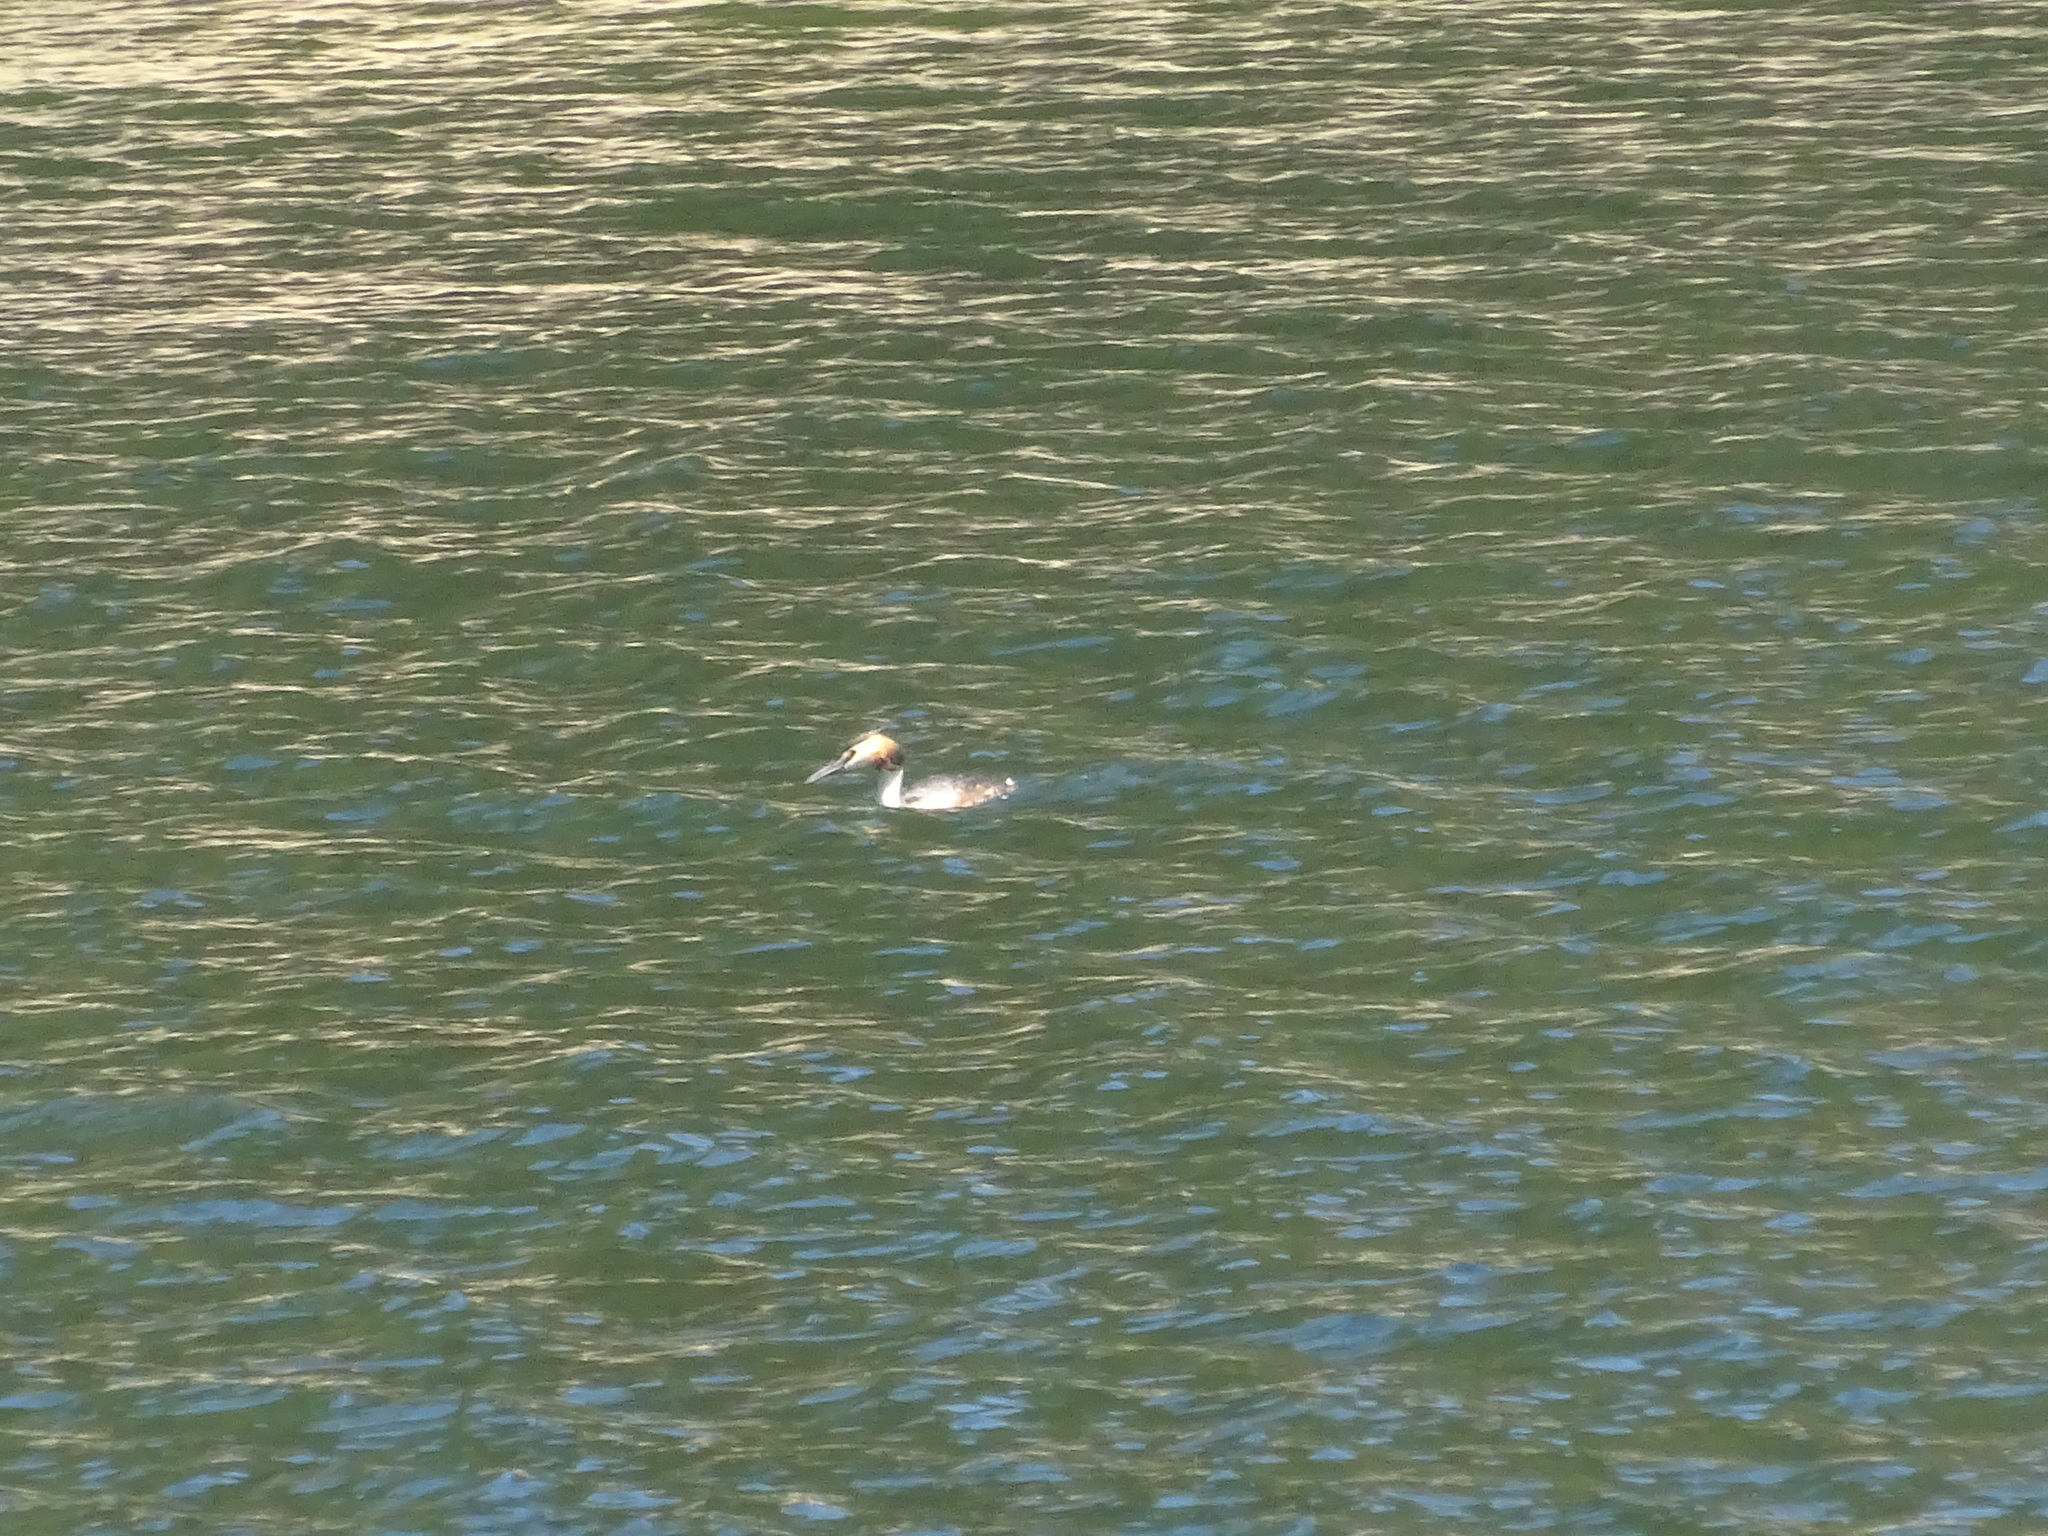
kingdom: Animalia
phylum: Chordata
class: Aves
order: Podicipediformes
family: Podicipedidae
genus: Podiceps
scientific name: Podiceps cristatus
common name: Great crested grebe
